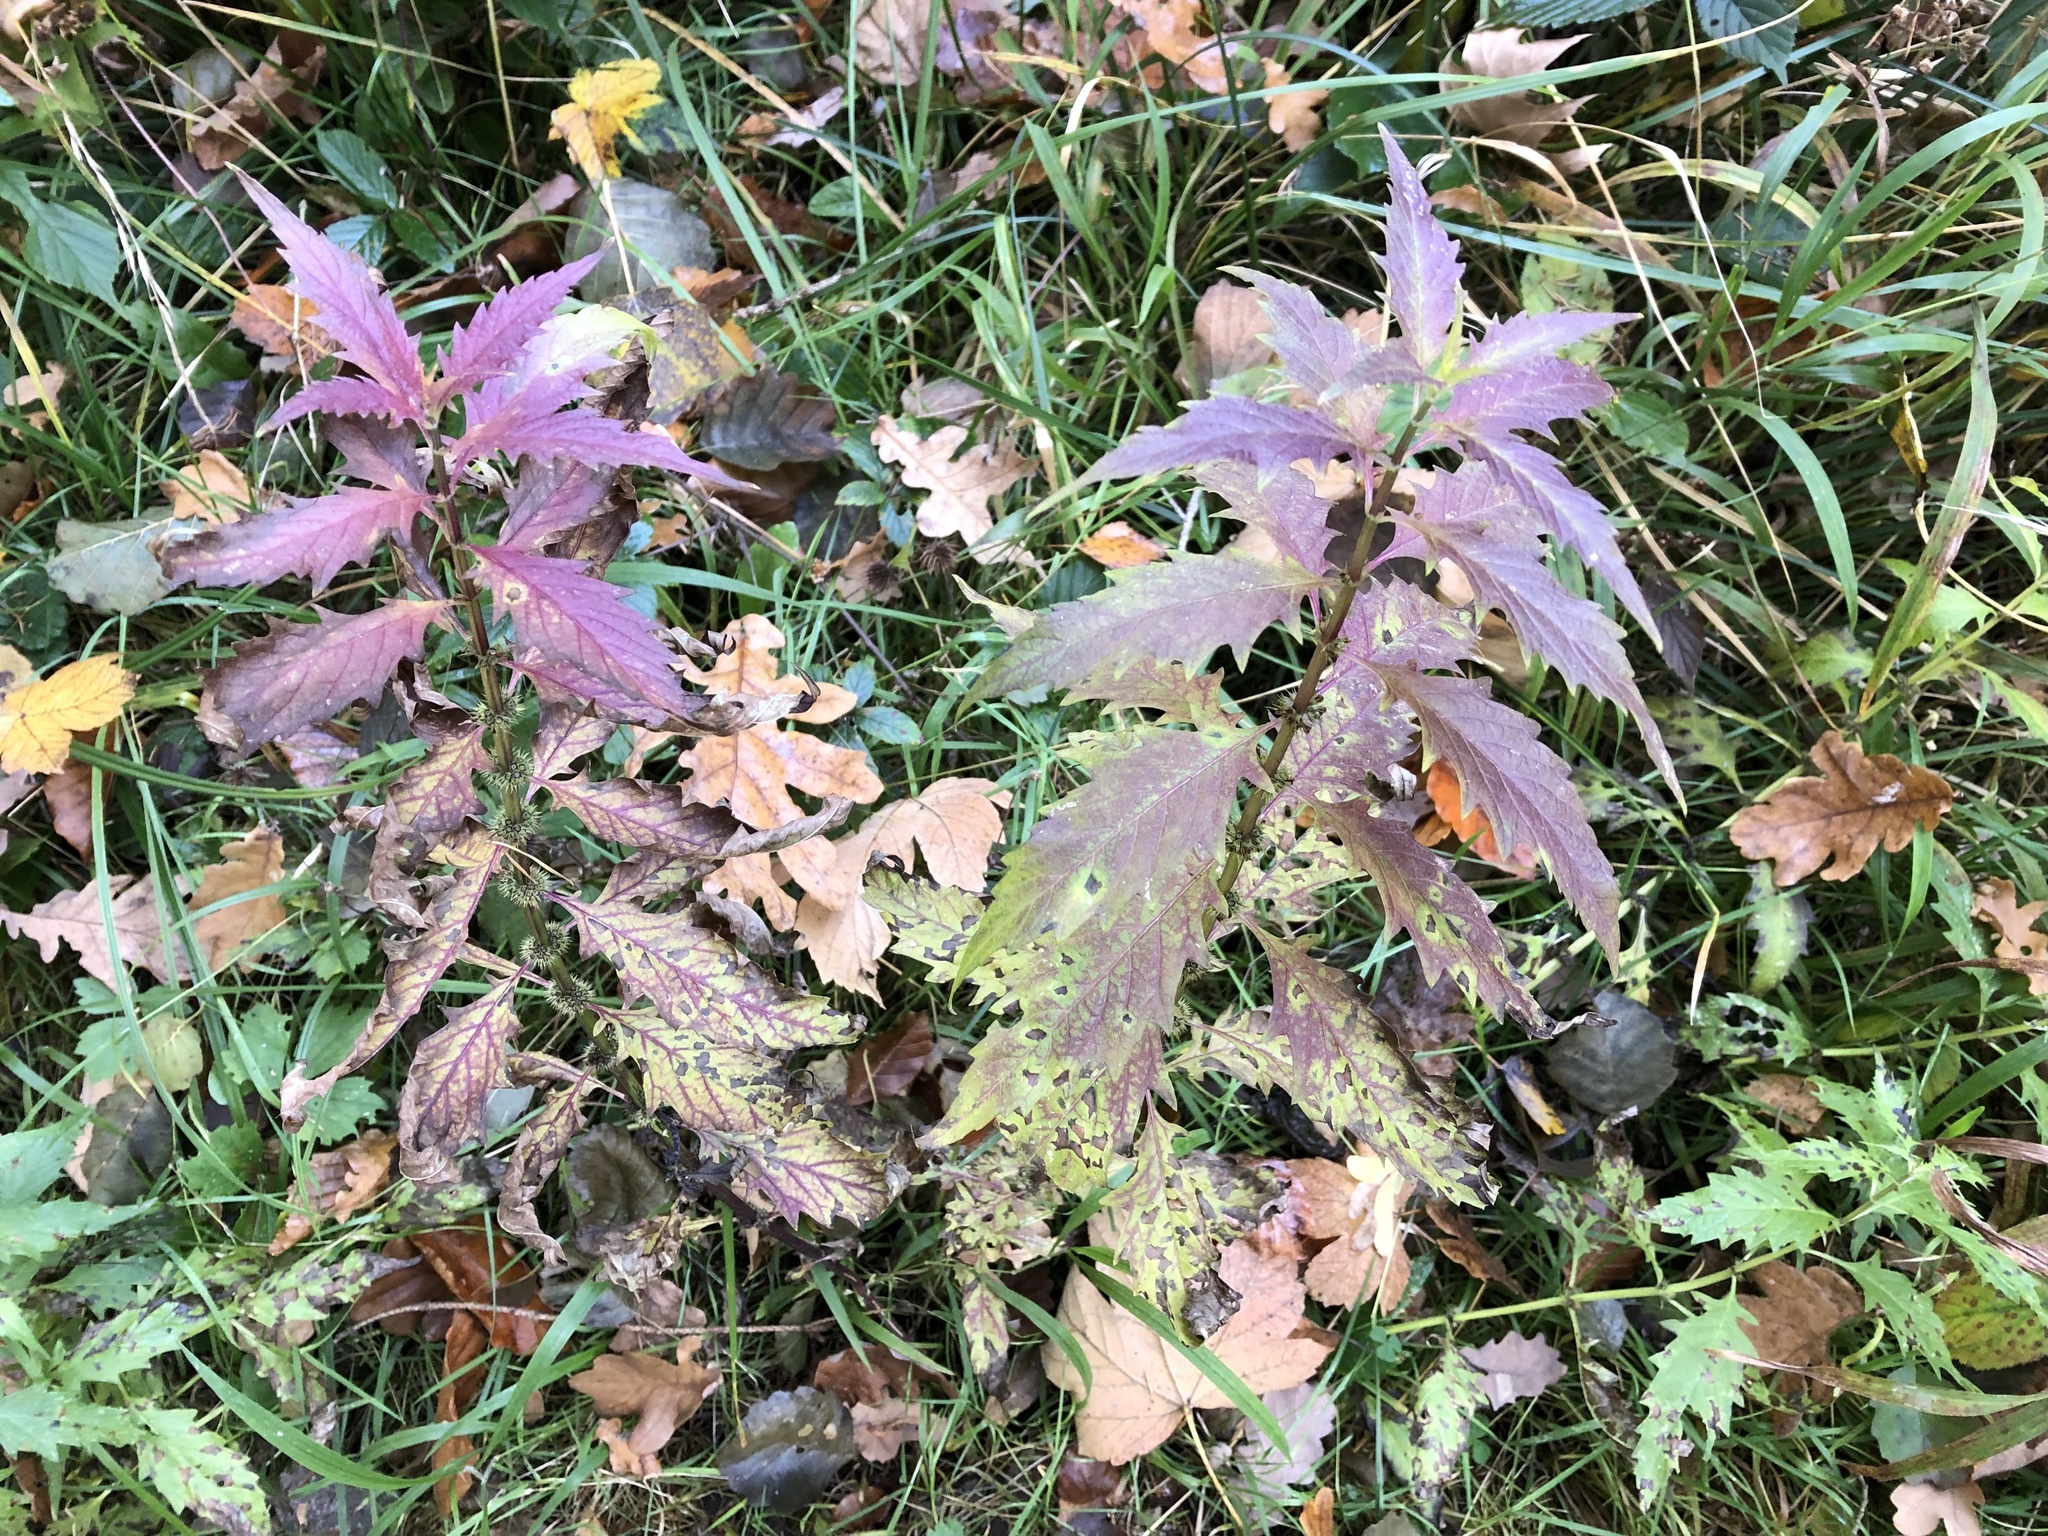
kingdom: Plantae
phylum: Tracheophyta
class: Magnoliopsida
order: Lamiales
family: Lamiaceae
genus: Lycopus
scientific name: Lycopus europaeus
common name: European bugleweed
